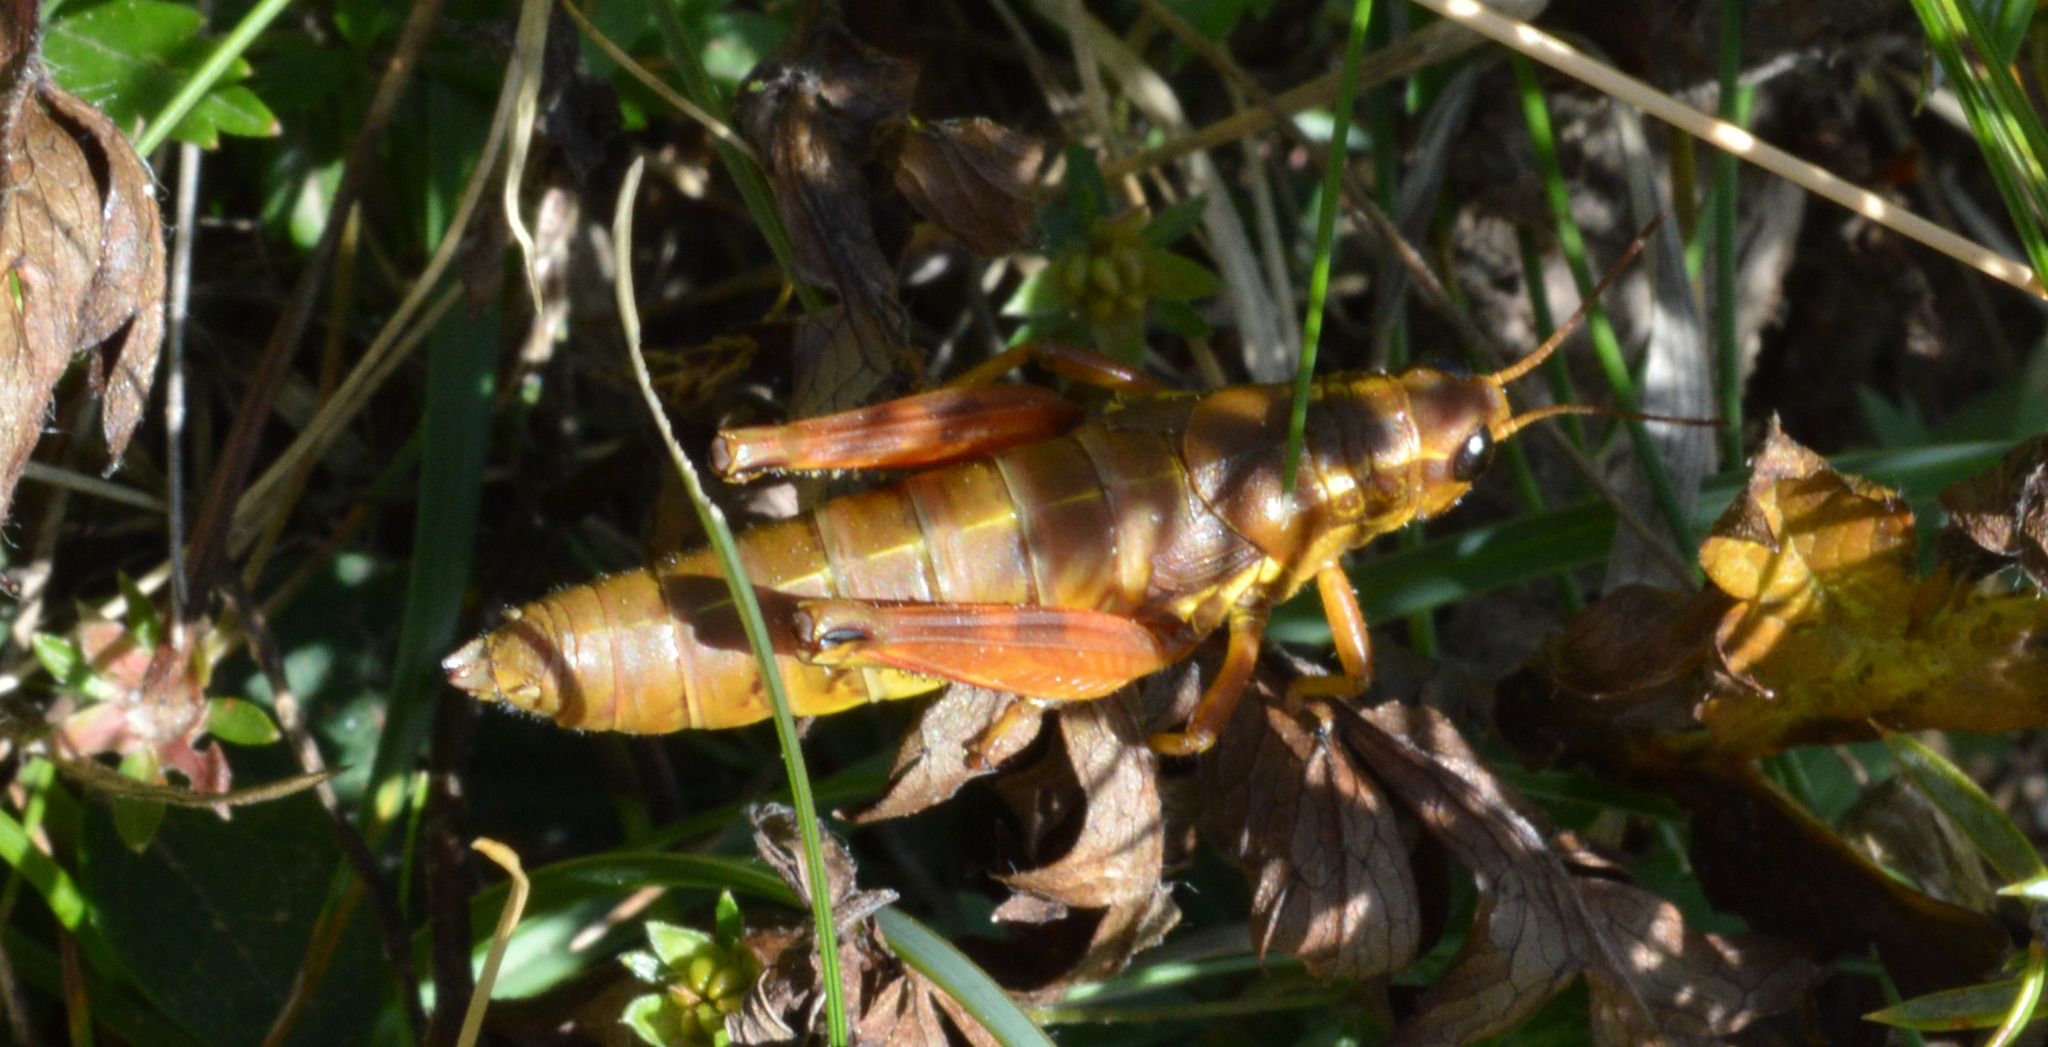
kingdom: Animalia
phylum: Arthropoda
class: Insecta
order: Orthoptera
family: Acrididae
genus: Podisma
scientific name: Podisma pedestris
